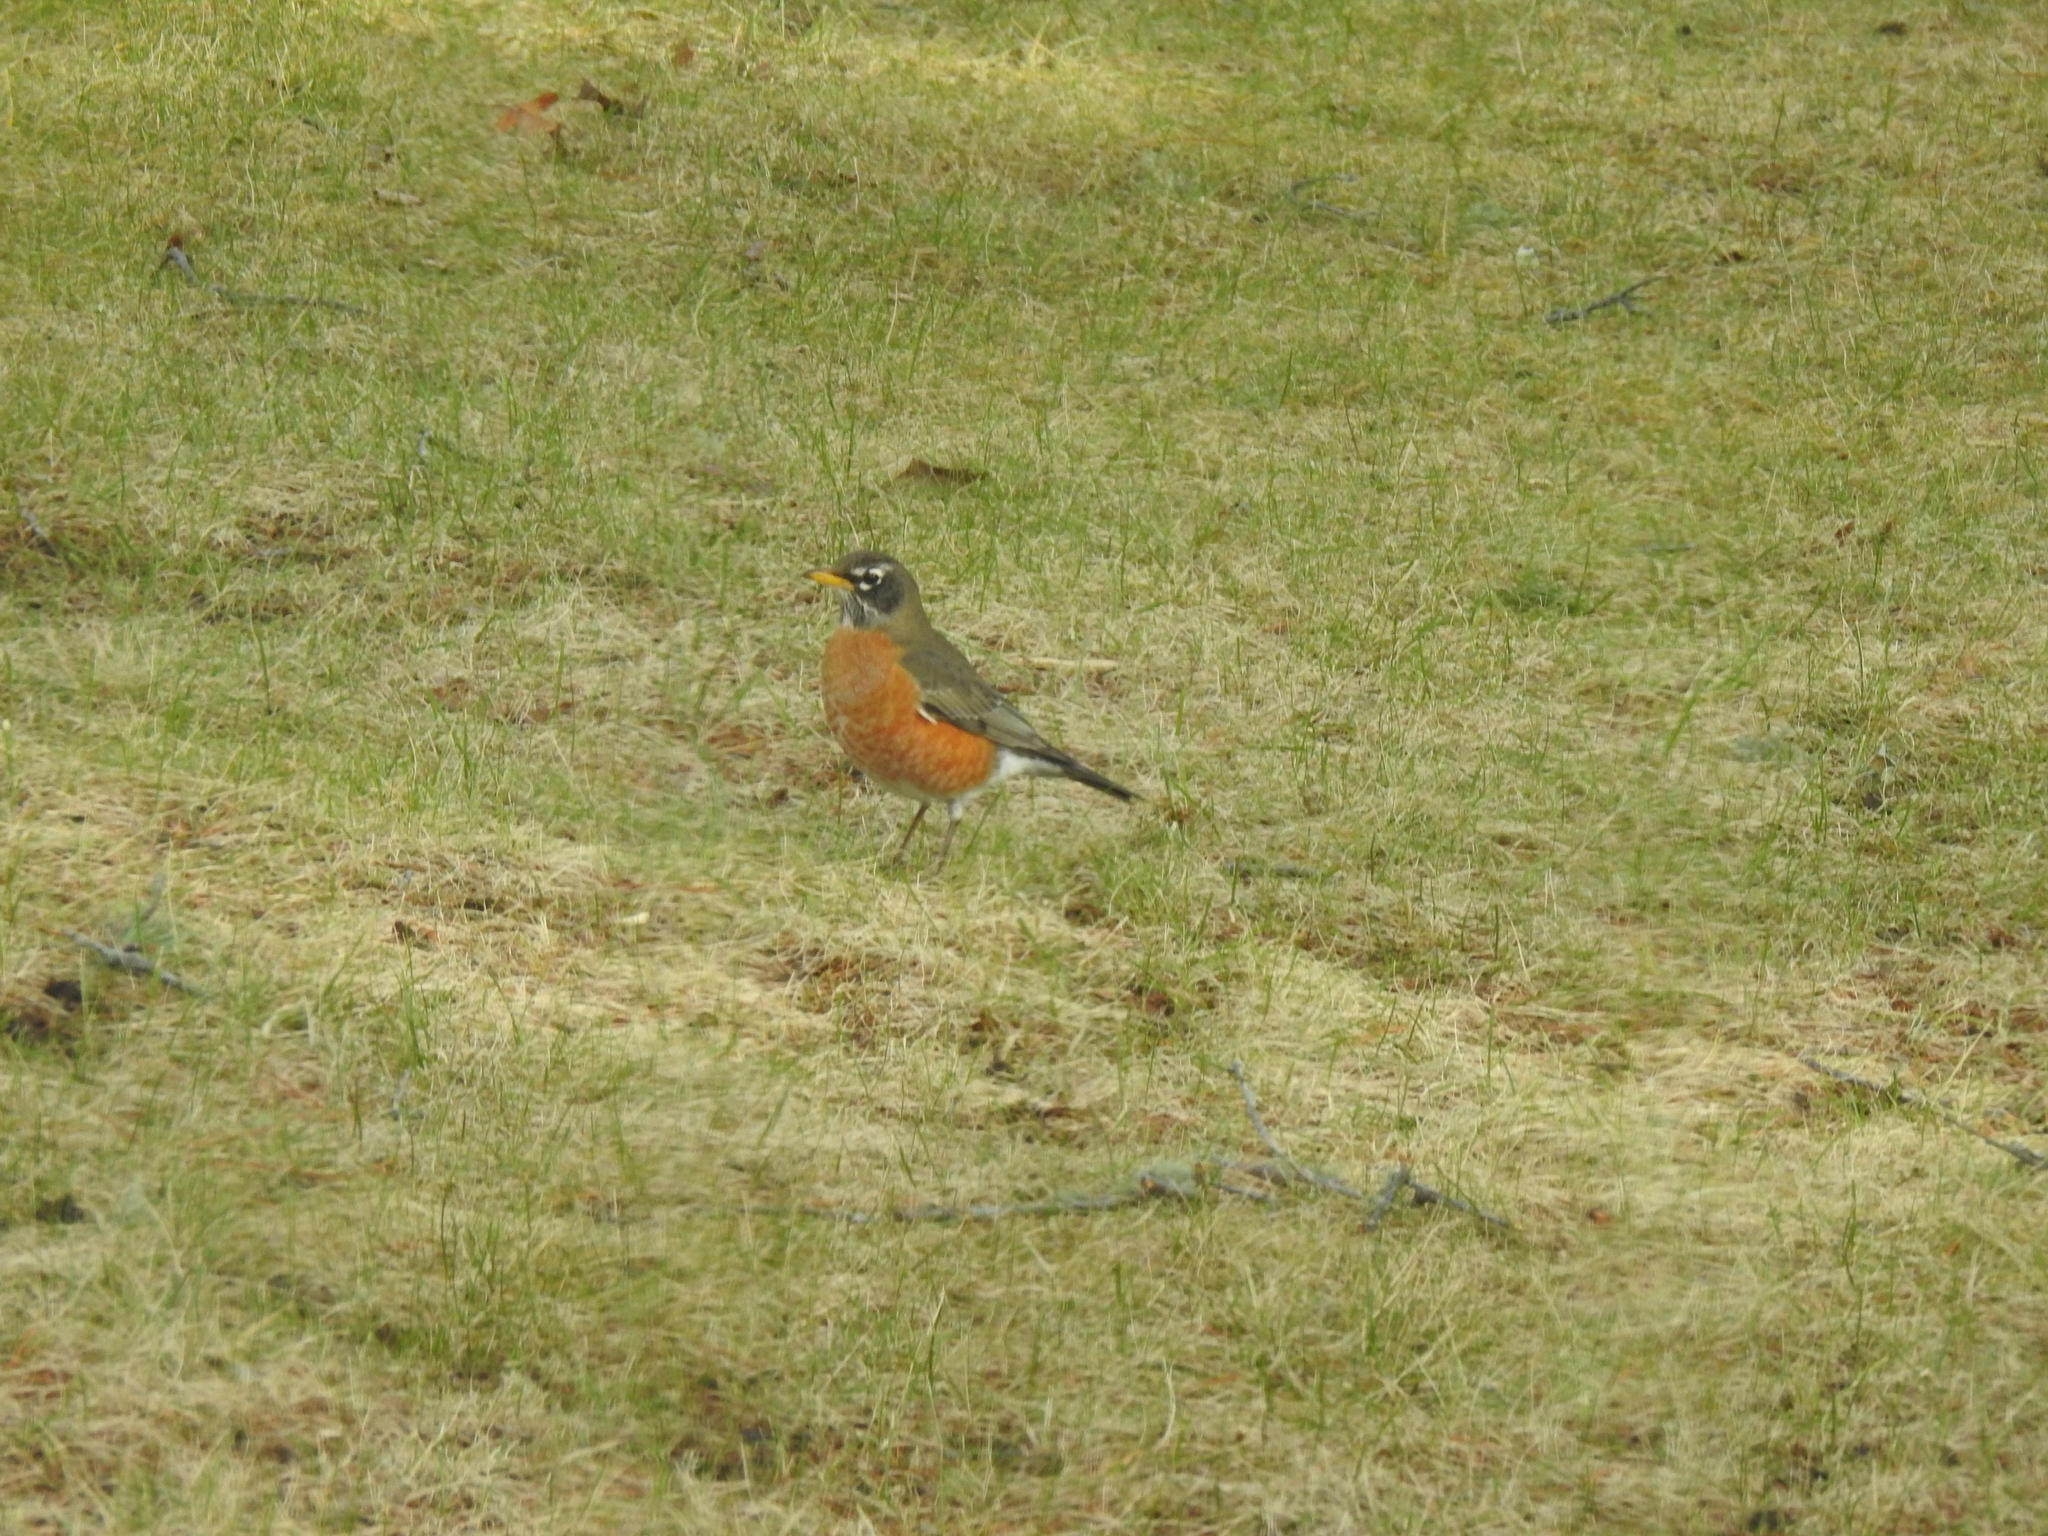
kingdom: Animalia
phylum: Chordata
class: Aves
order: Passeriformes
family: Turdidae
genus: Turdus
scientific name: Turdus migratorius
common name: American robin
